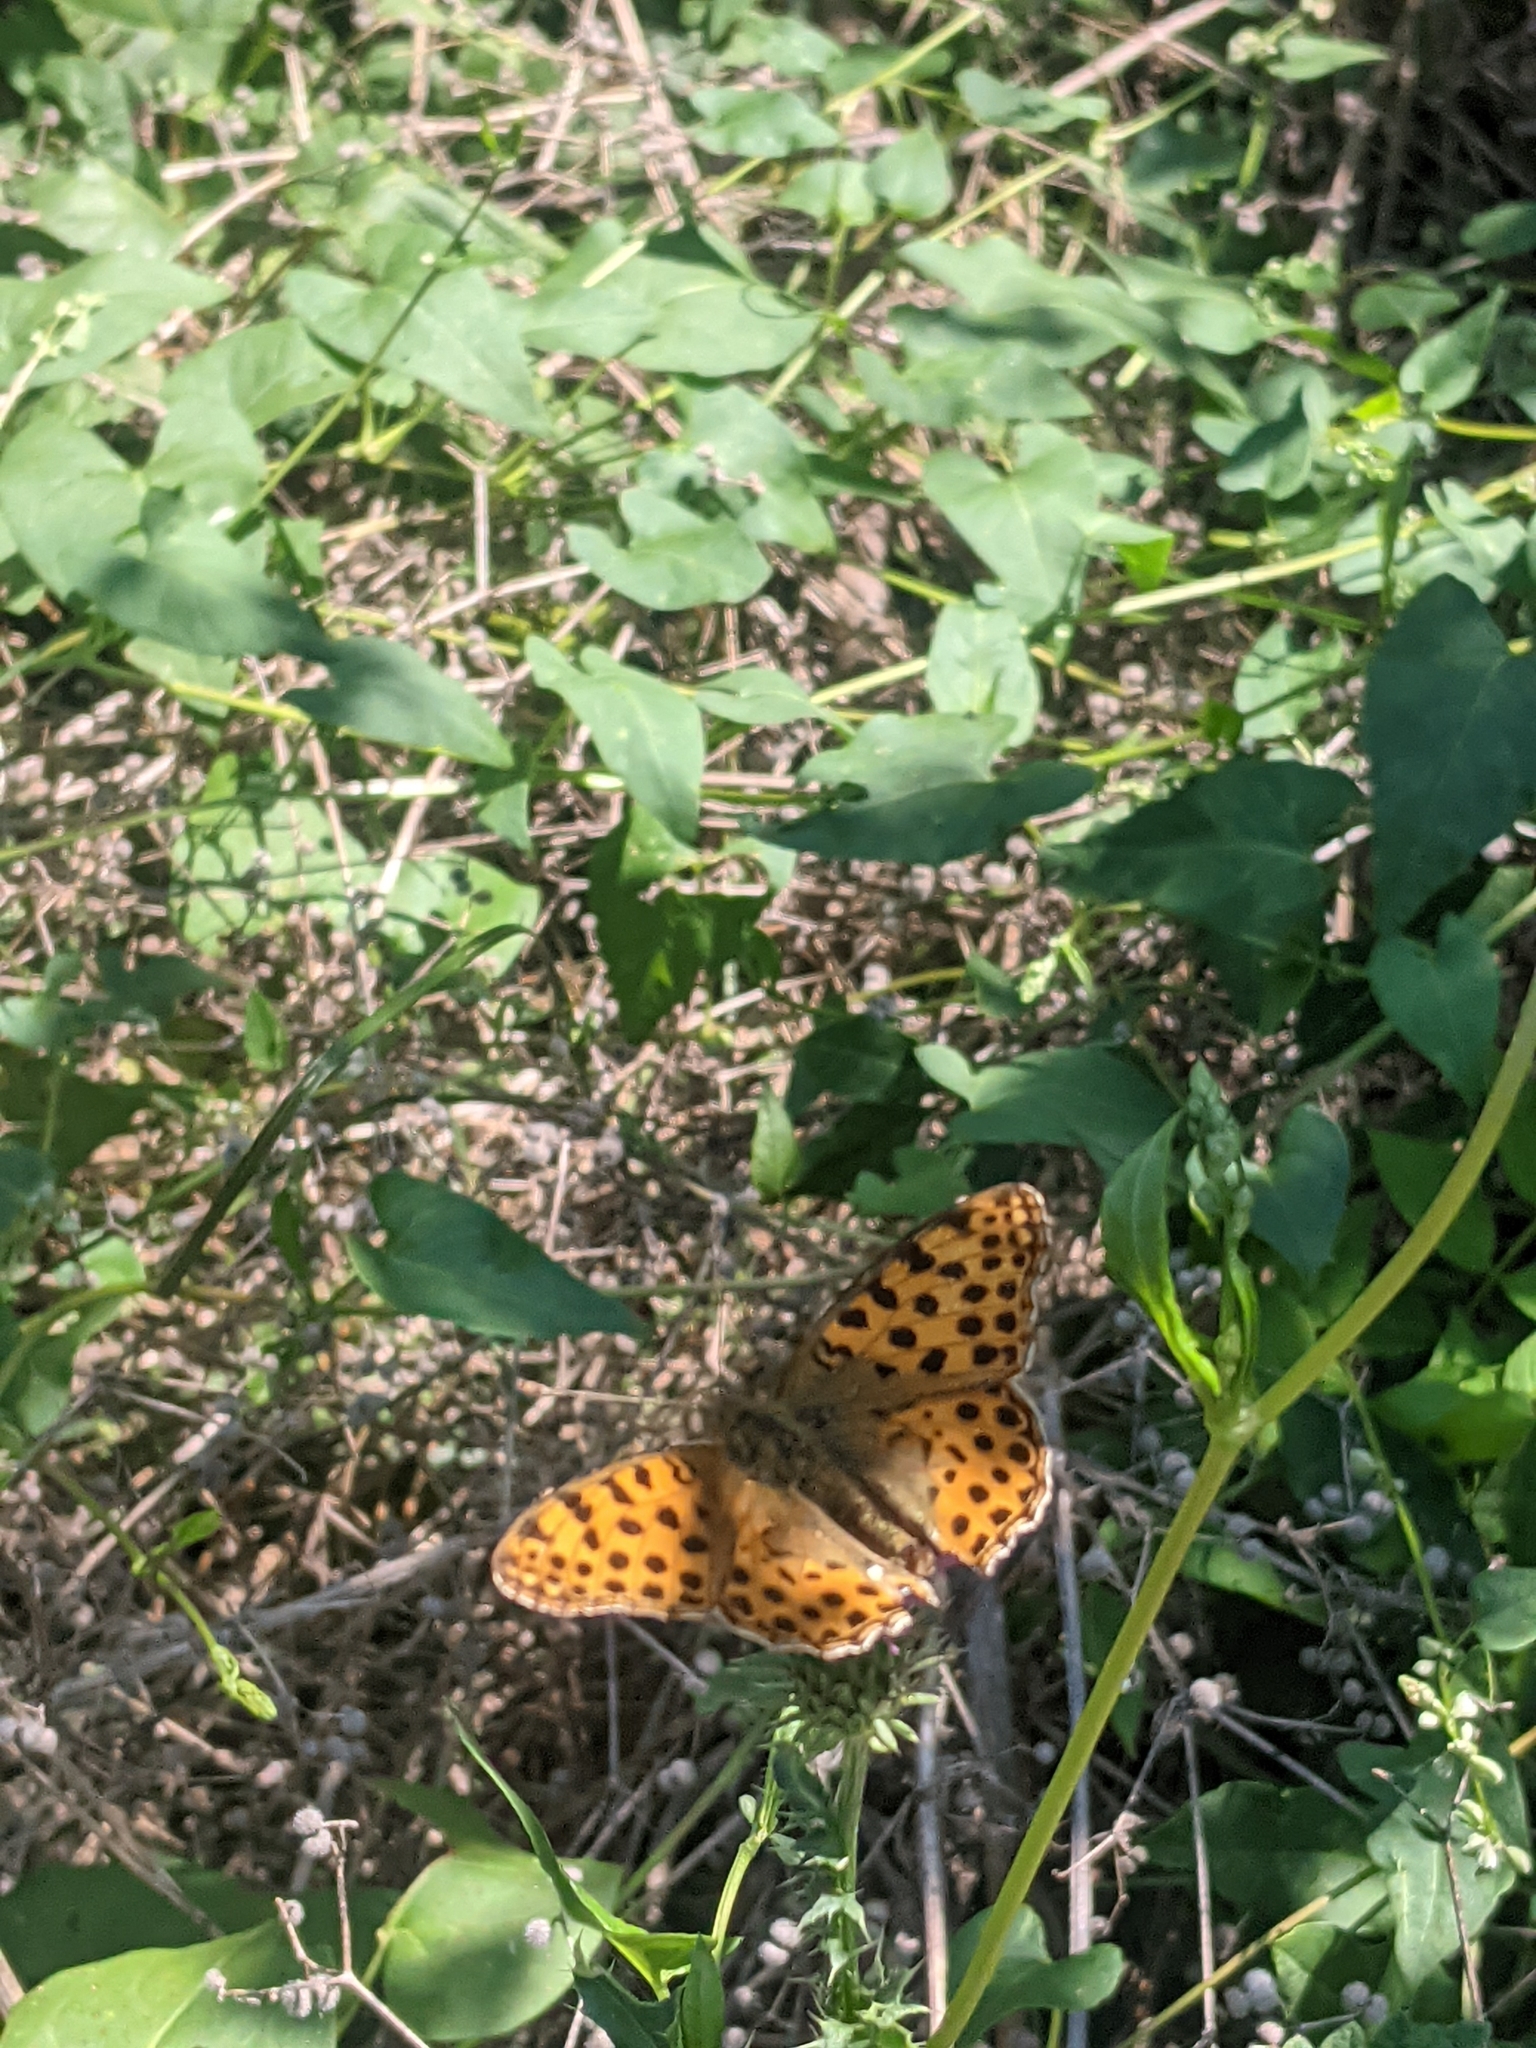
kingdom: Animalia
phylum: Arthropoda
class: Insecta
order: Lepidoptera
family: Nymphalidae
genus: Issoria
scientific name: Issoria lathonia
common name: Queen of spain fritillary
